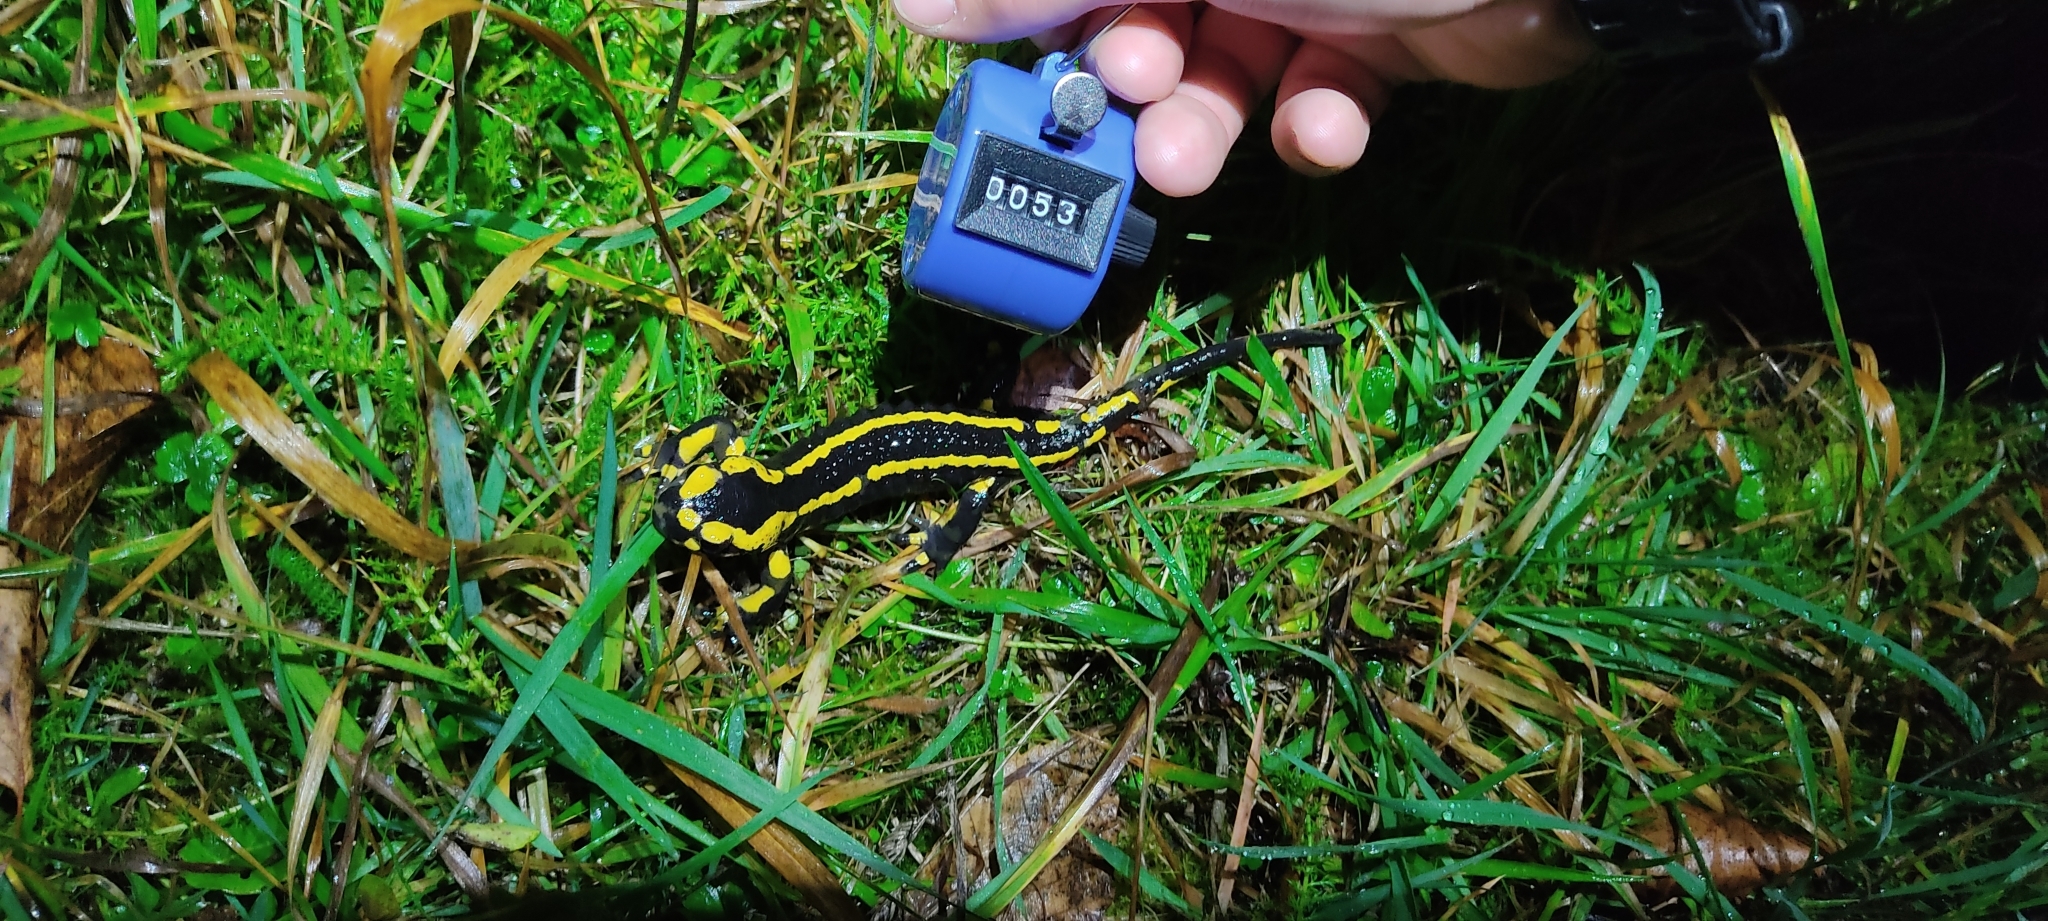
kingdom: Animalia
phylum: Chordata
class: Amphibia
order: Caudata
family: Salamandridae
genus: Salamandra
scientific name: Salamandra salamandra
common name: Fire salamander
